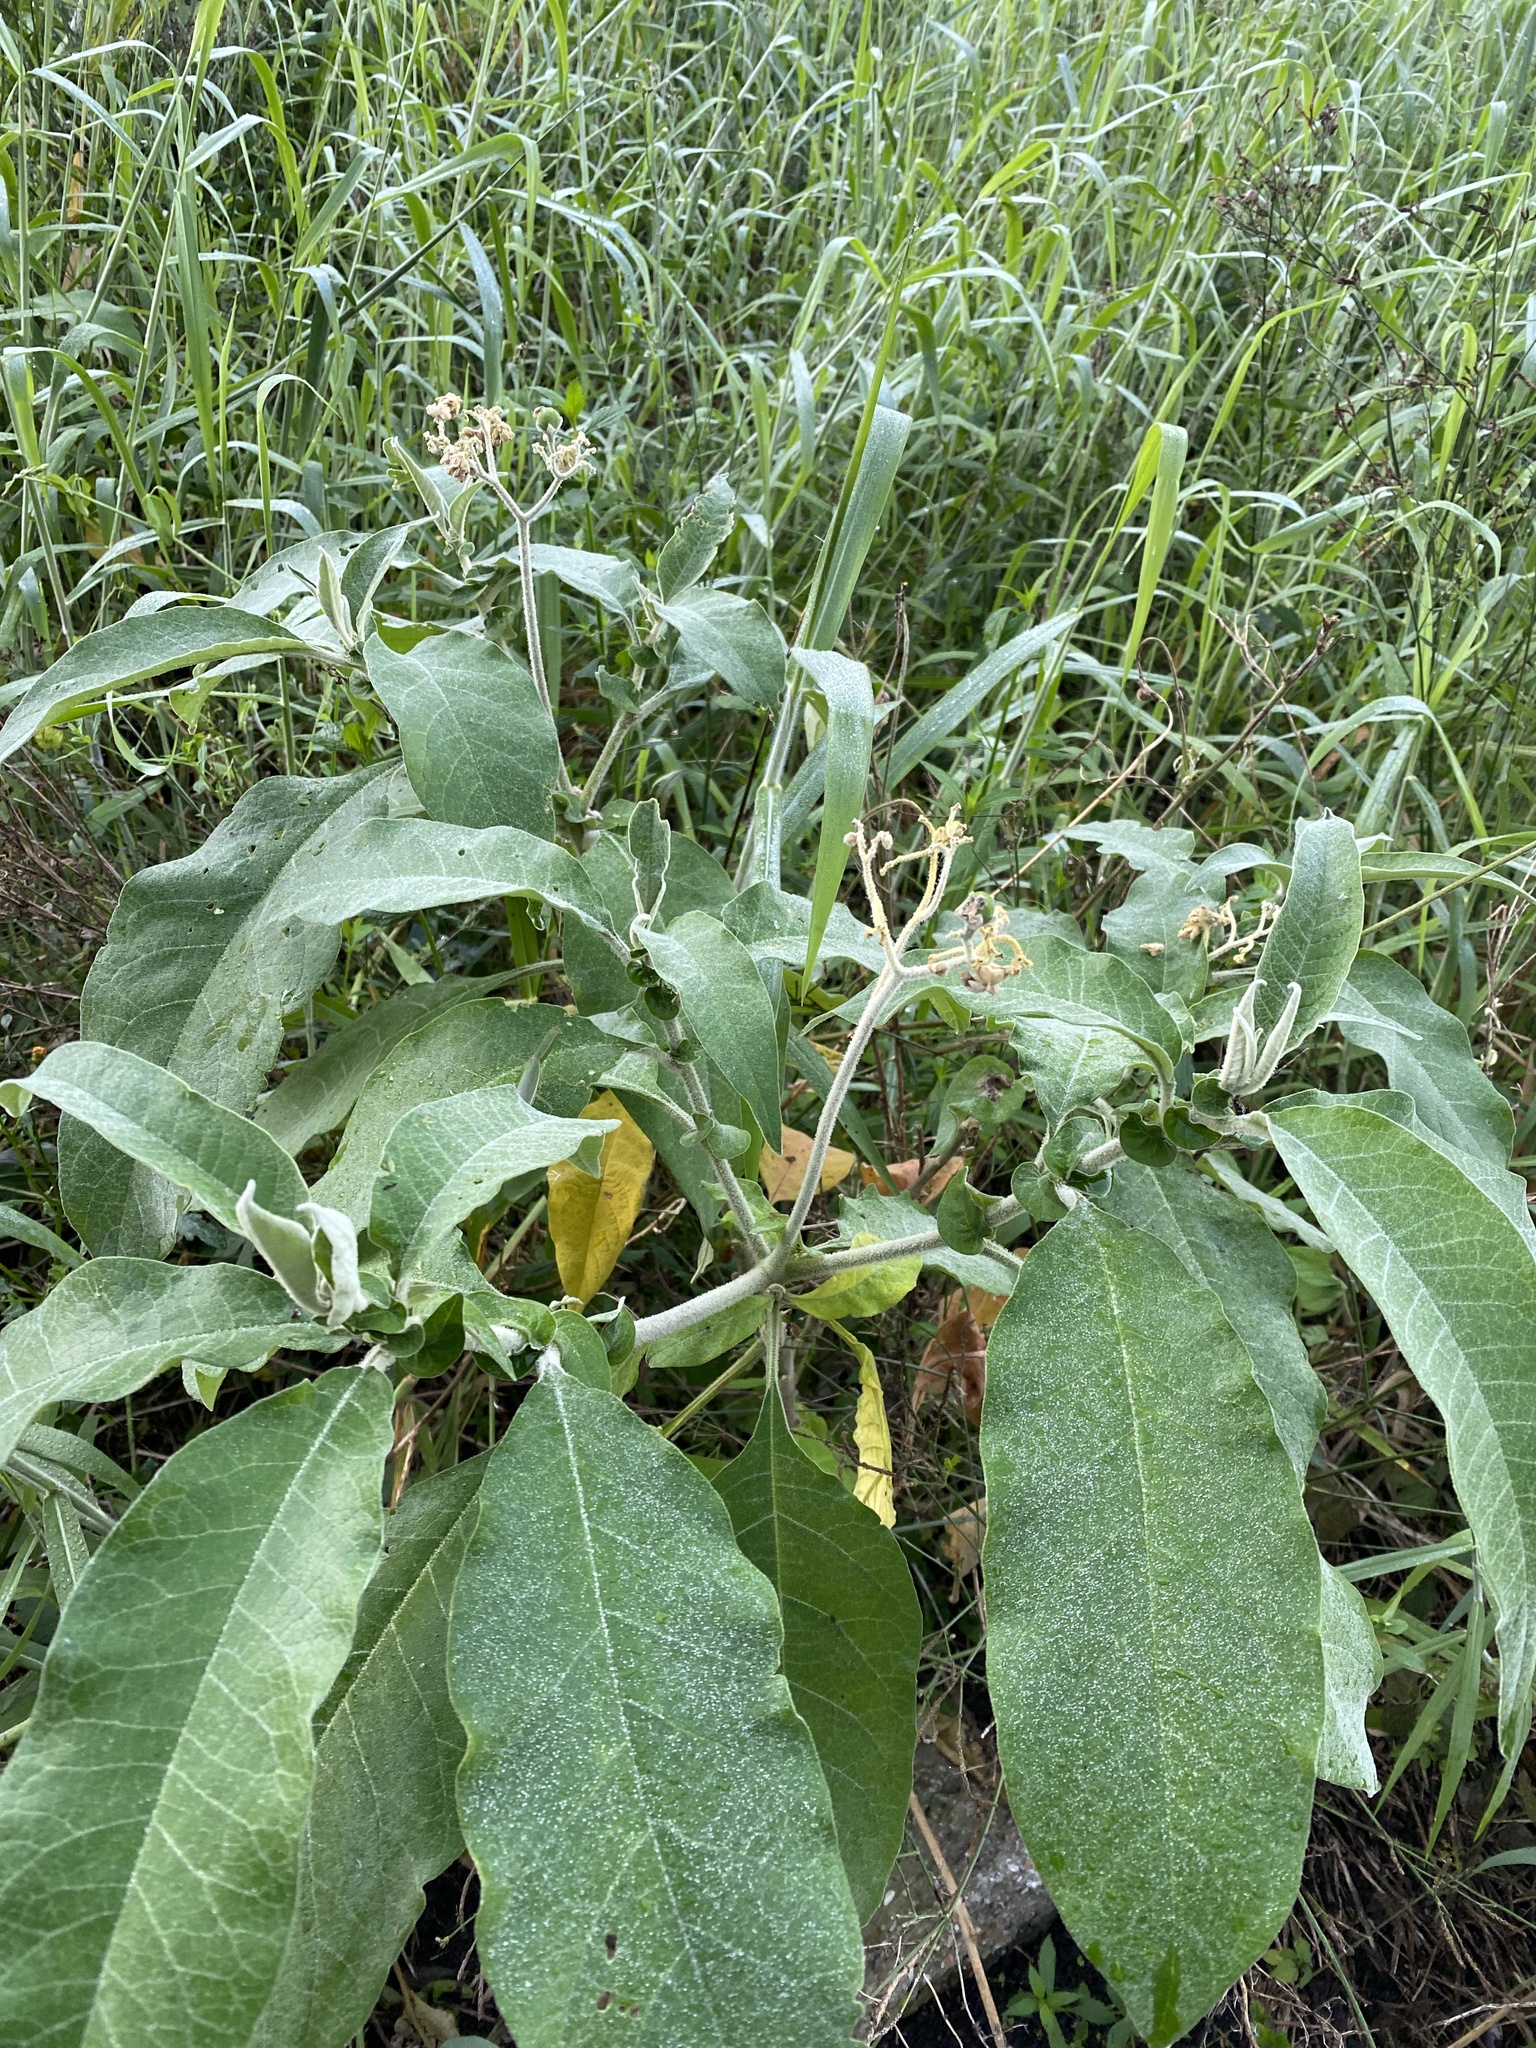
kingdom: Plantae
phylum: Tracheophyta
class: Magnoliopsida
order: Solanales
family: Solanaceae
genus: Solanum
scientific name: Solanum mauritianum
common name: Earleaf nightshade
